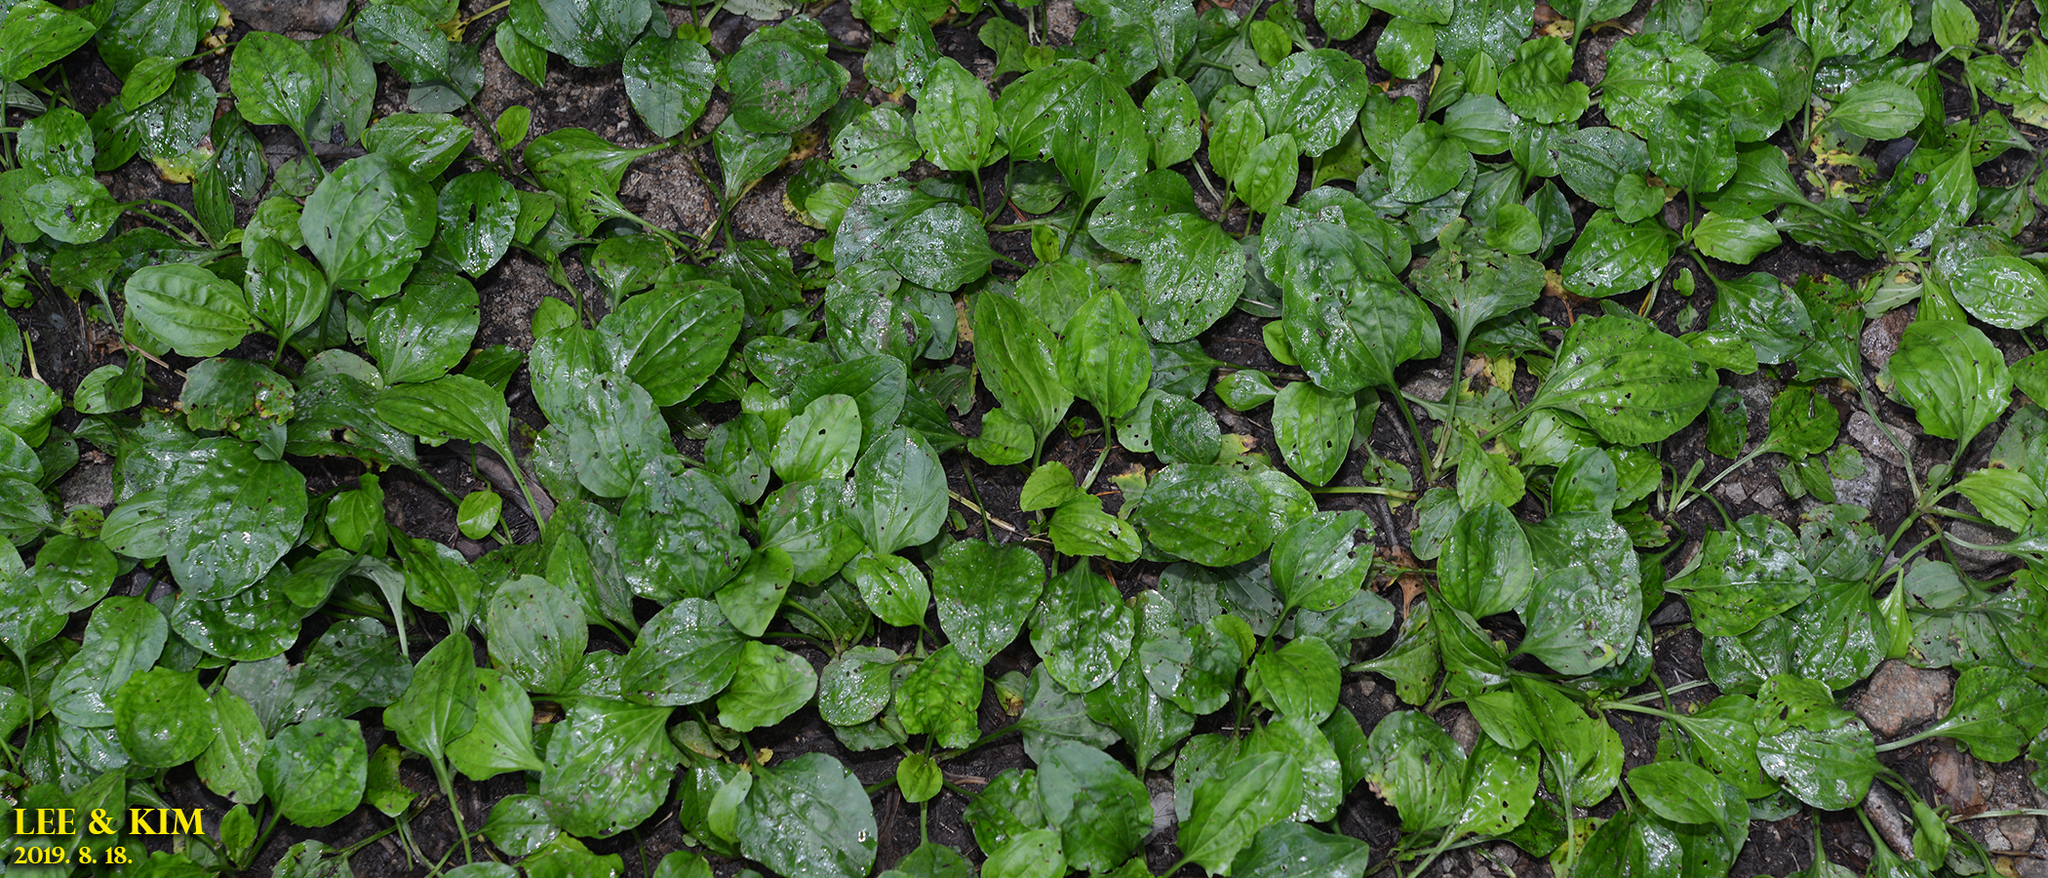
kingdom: Plantae
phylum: Tracheophyta
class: Magnoliopsida
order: Lamiales
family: Plantaginaceae
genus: Plantago
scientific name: Plantago major
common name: Common plantain
